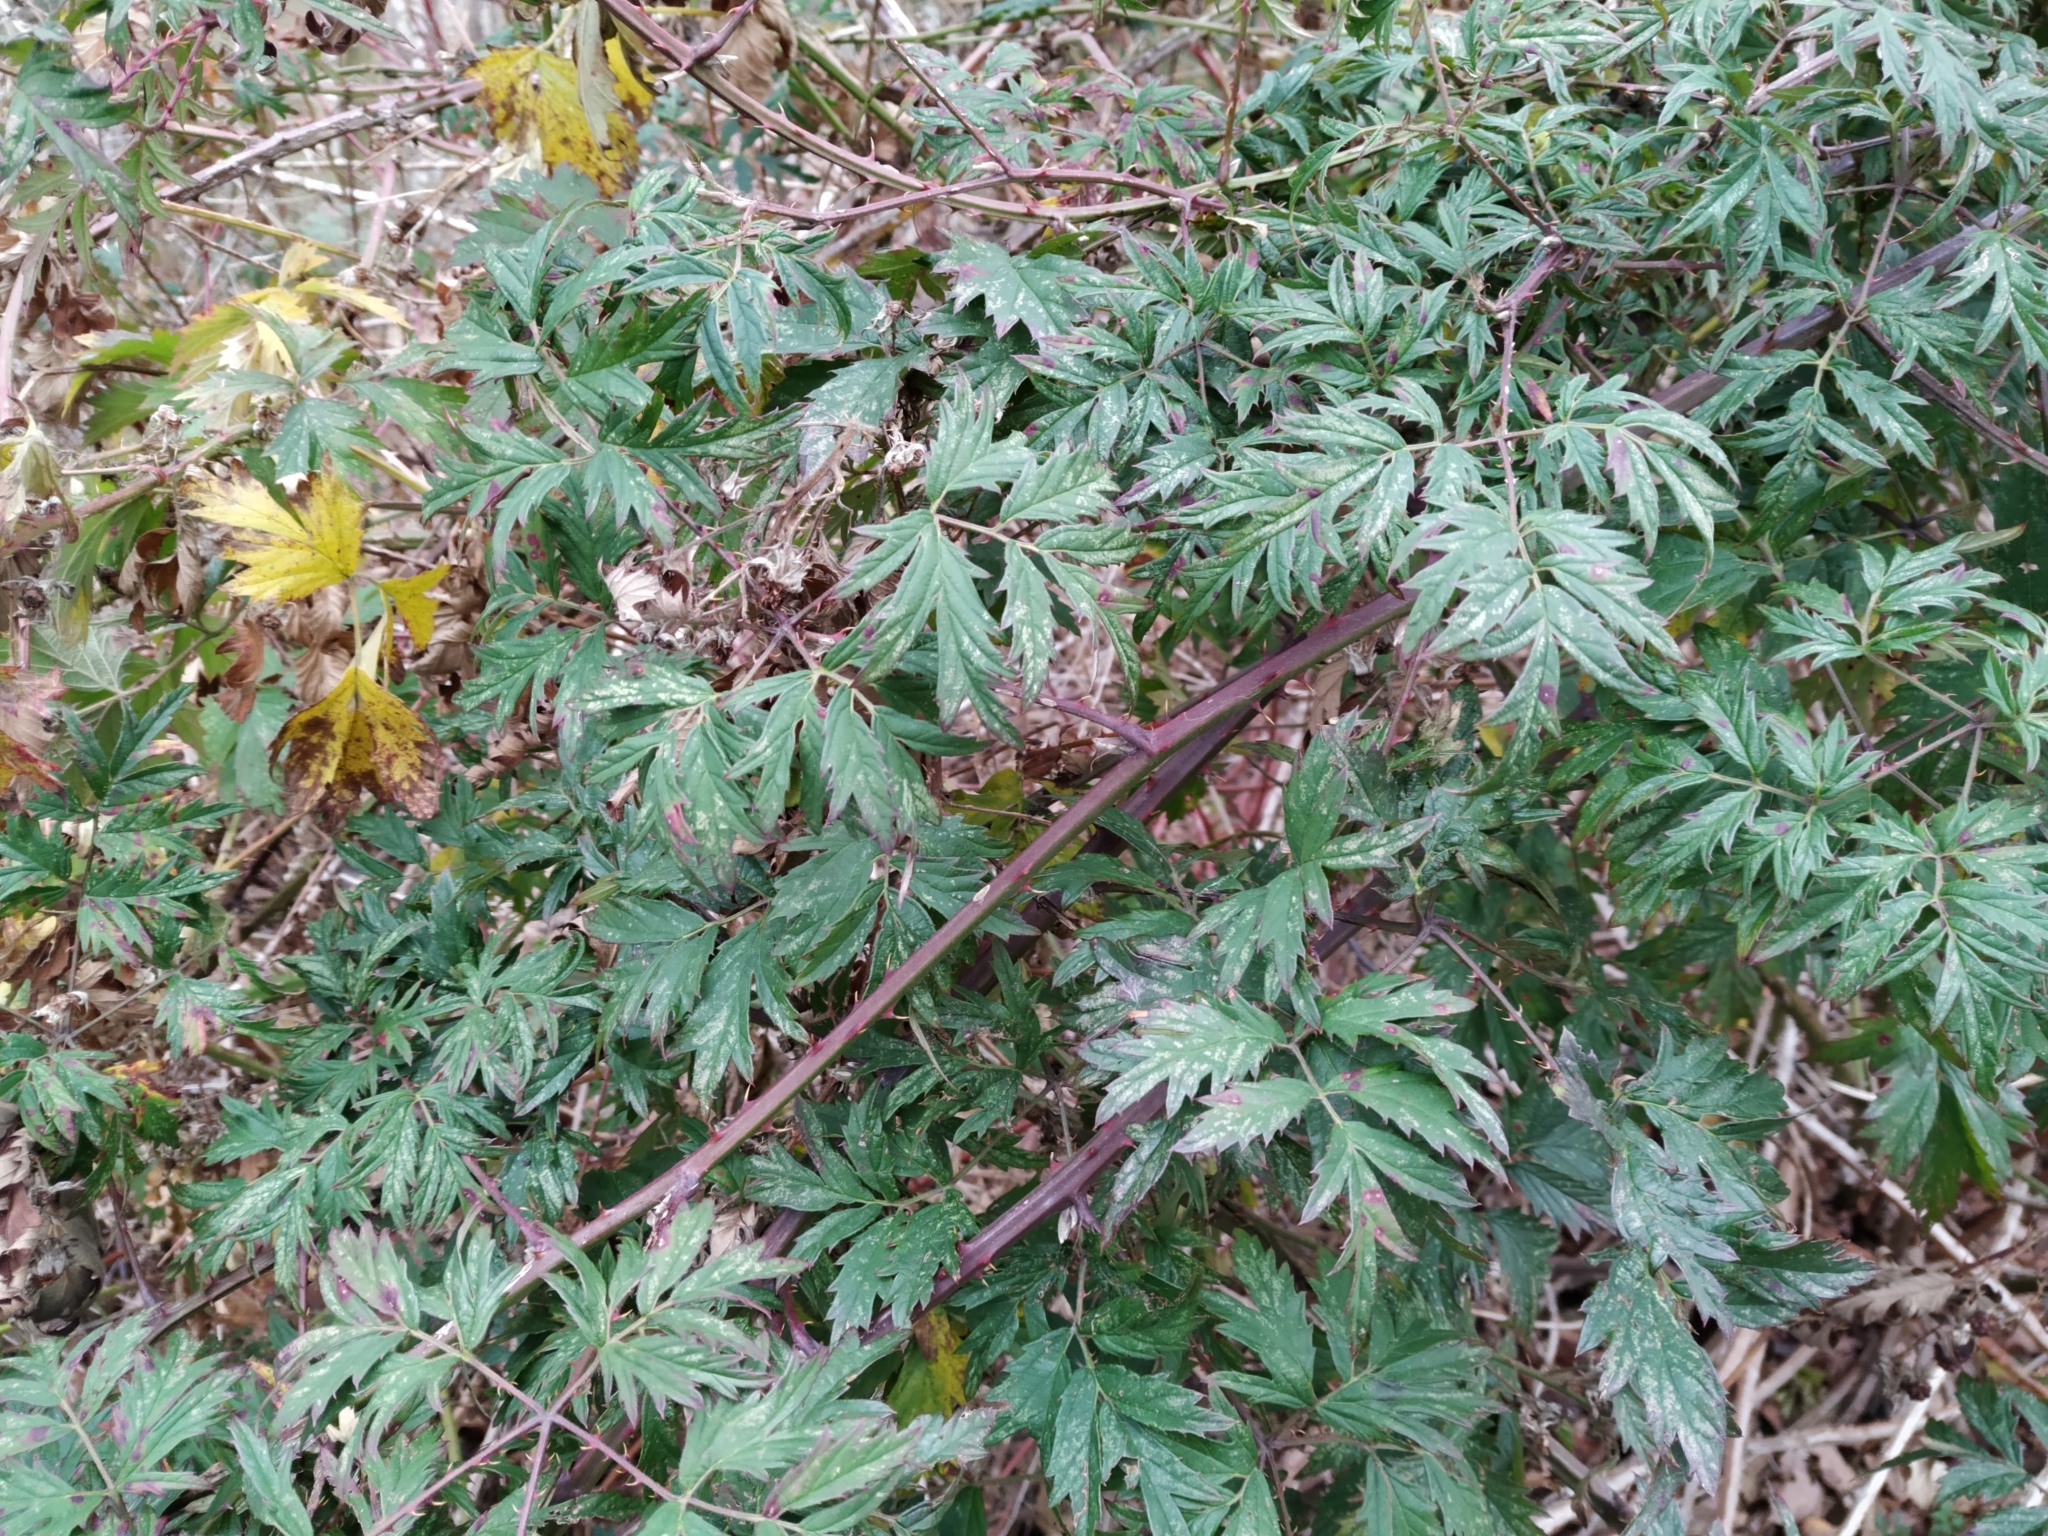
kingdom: Plantae
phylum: Tracheophyta
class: Magnoliopsida
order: Rosales
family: Rosaceae
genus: Rubus
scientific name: Rubus laciniatus
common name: Evergreen blackberry
